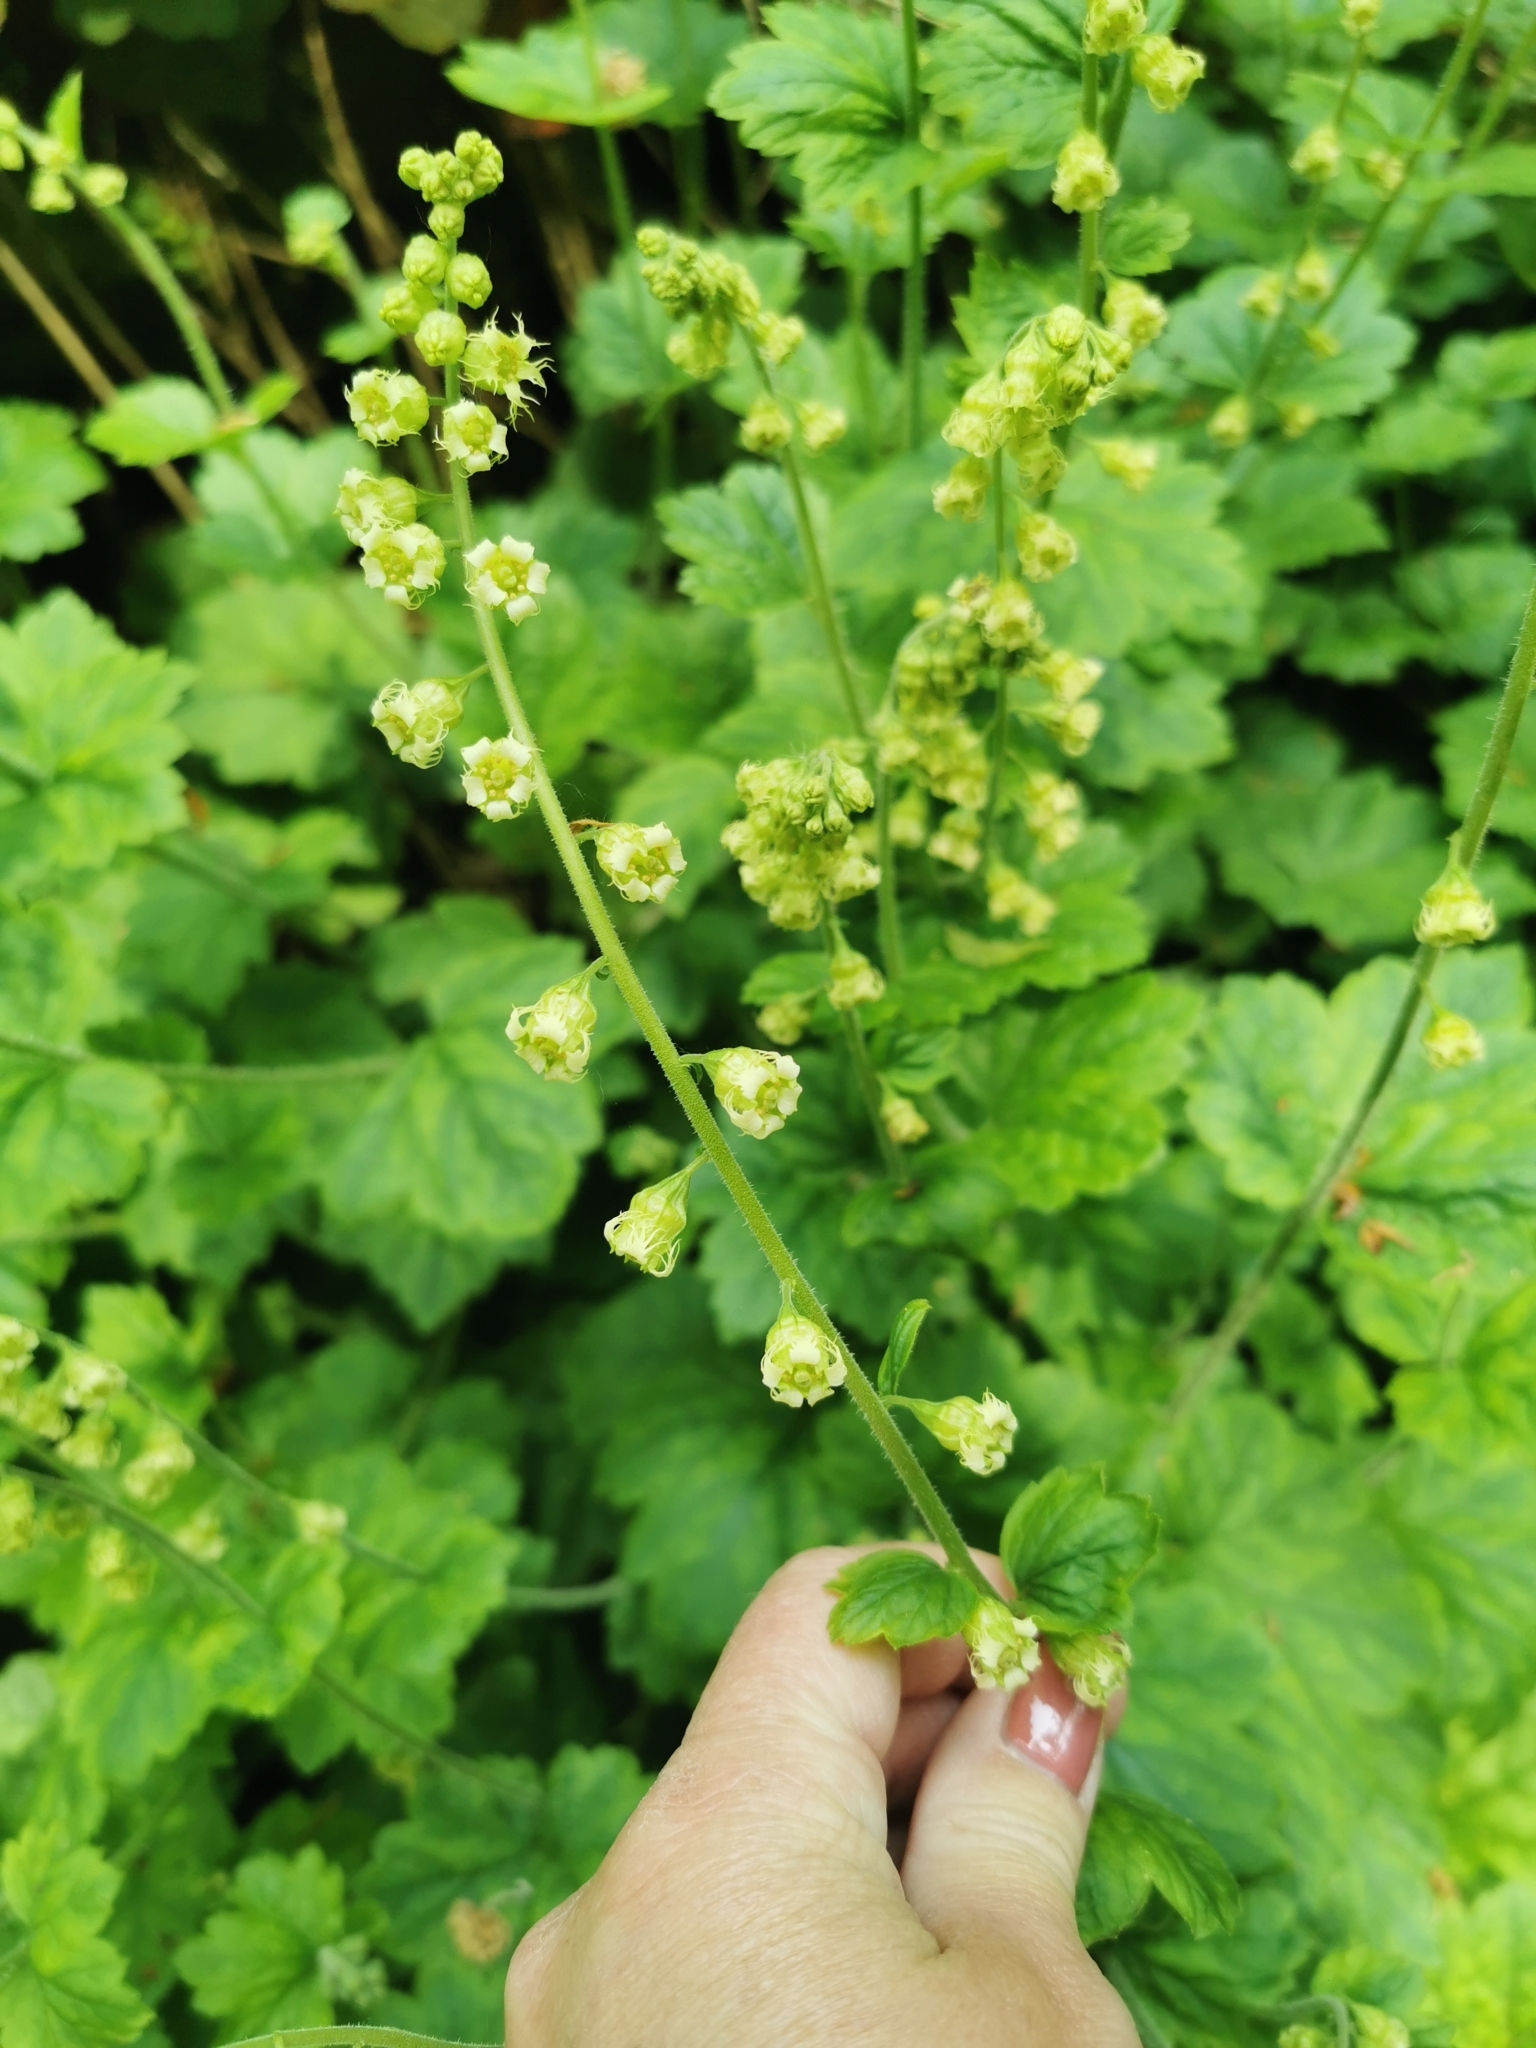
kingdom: Plantae
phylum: Tracheophyta
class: Magnoliopsida
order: Saxifragales
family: Saxifragaceae
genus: Tellima
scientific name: Tellima grandiflora
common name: Fringecups
